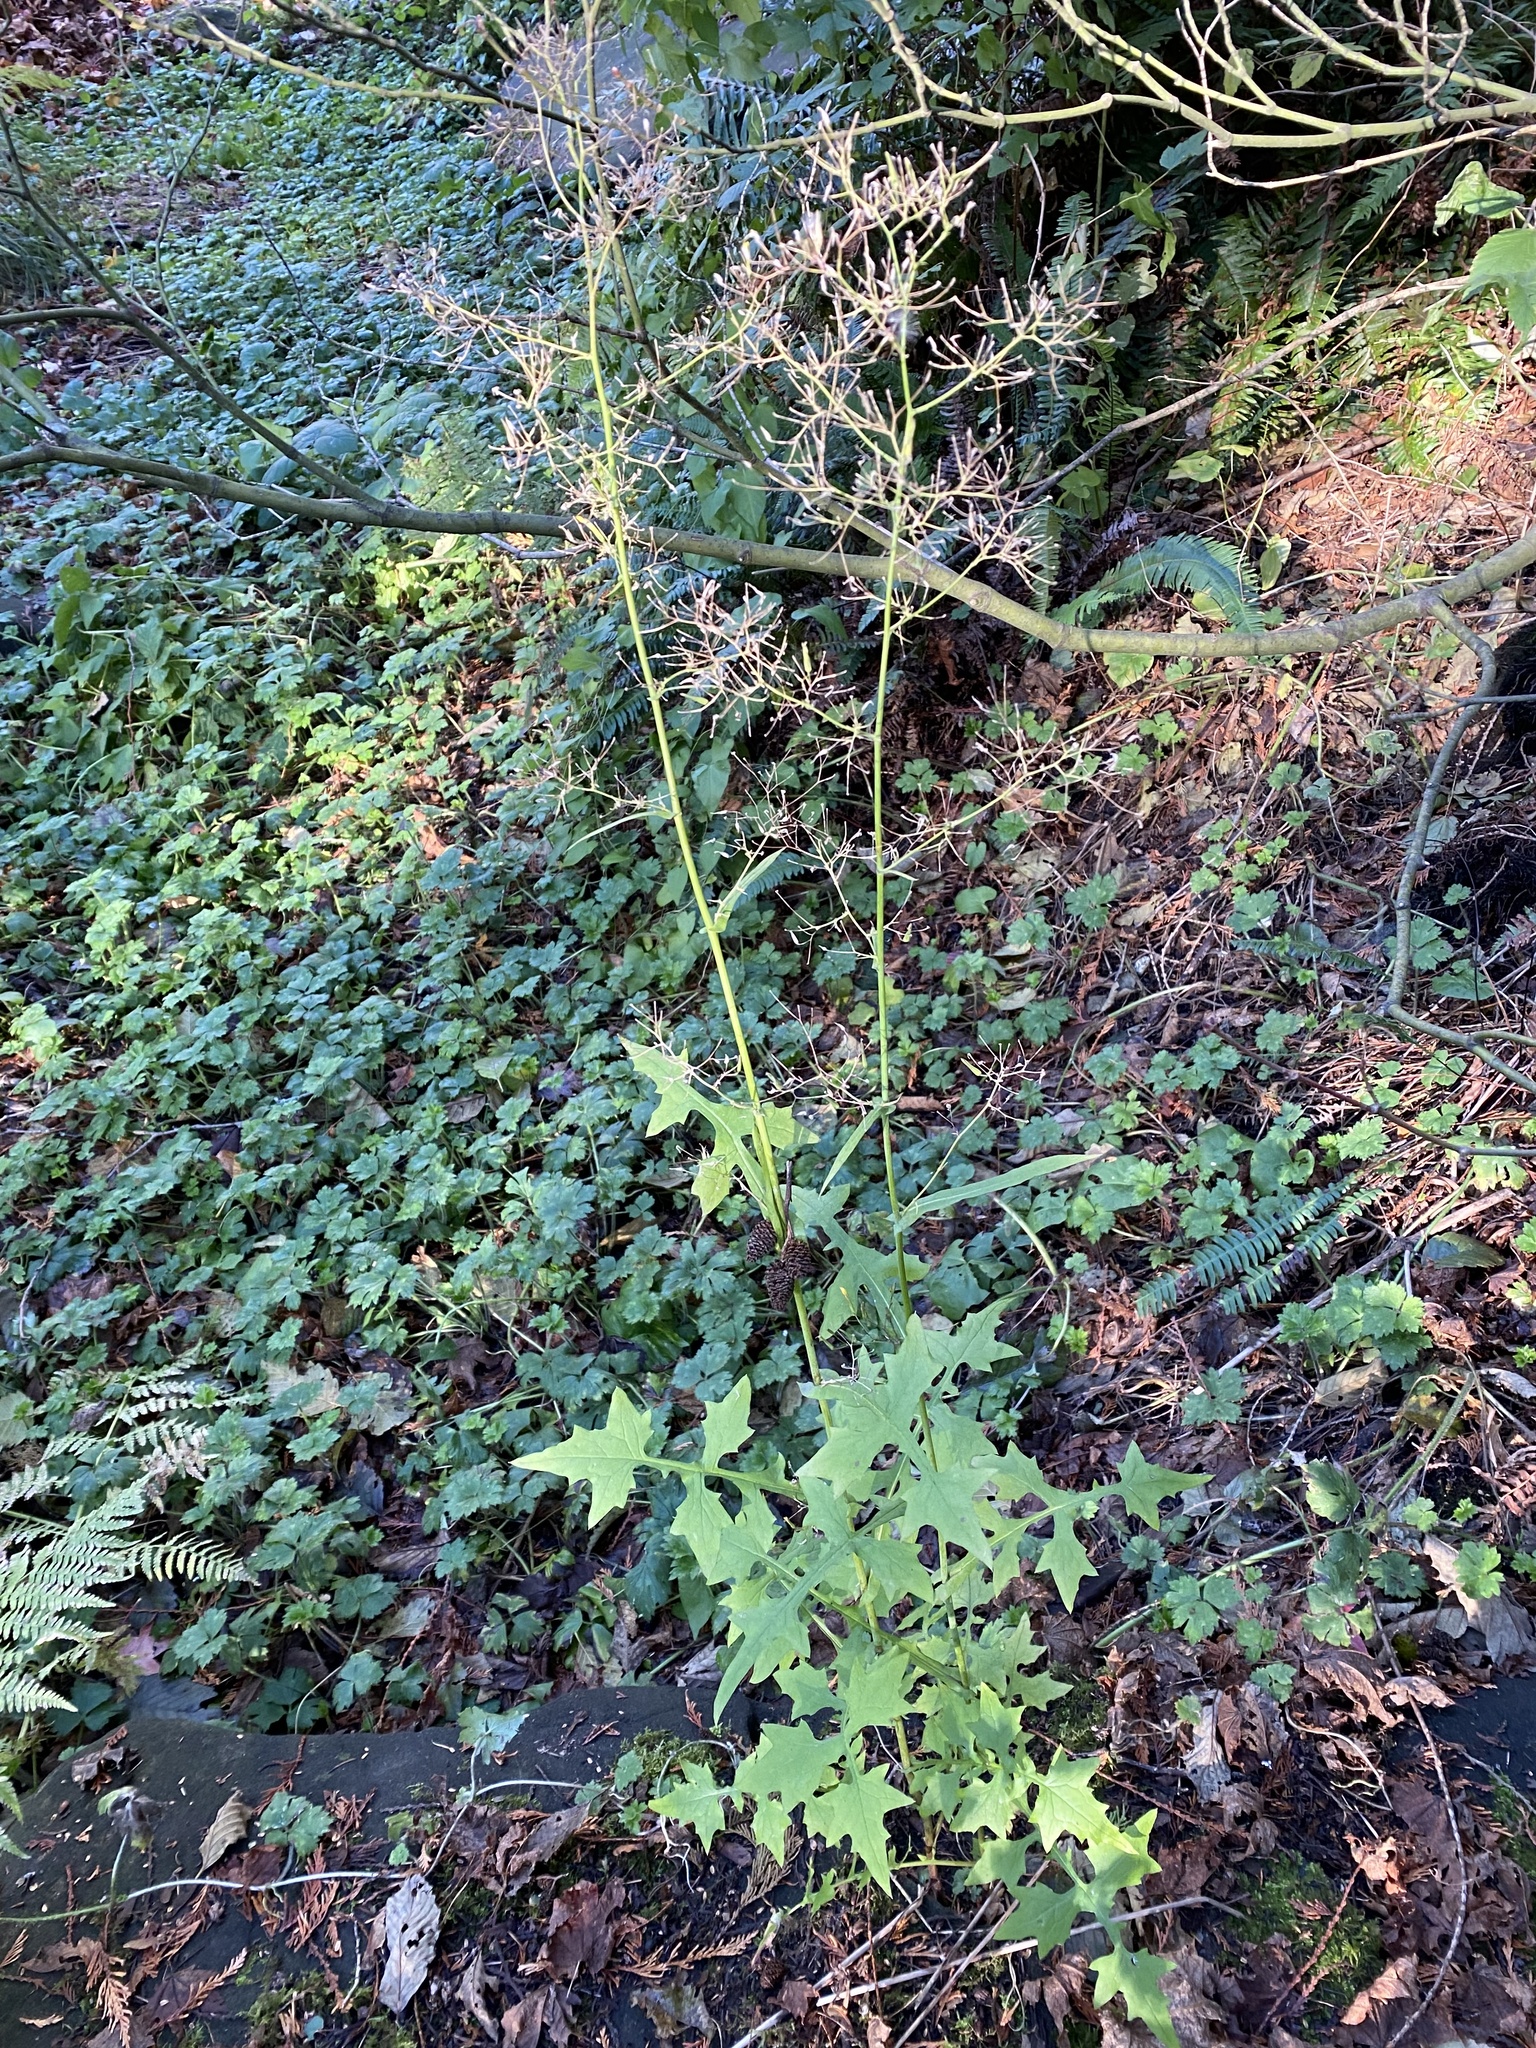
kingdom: Plantae
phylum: Tracheophyta
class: Magnoliopsida
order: Asterales
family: Asteraceae
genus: Mycelis
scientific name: Mycelis muralis
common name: Wall lettuce
